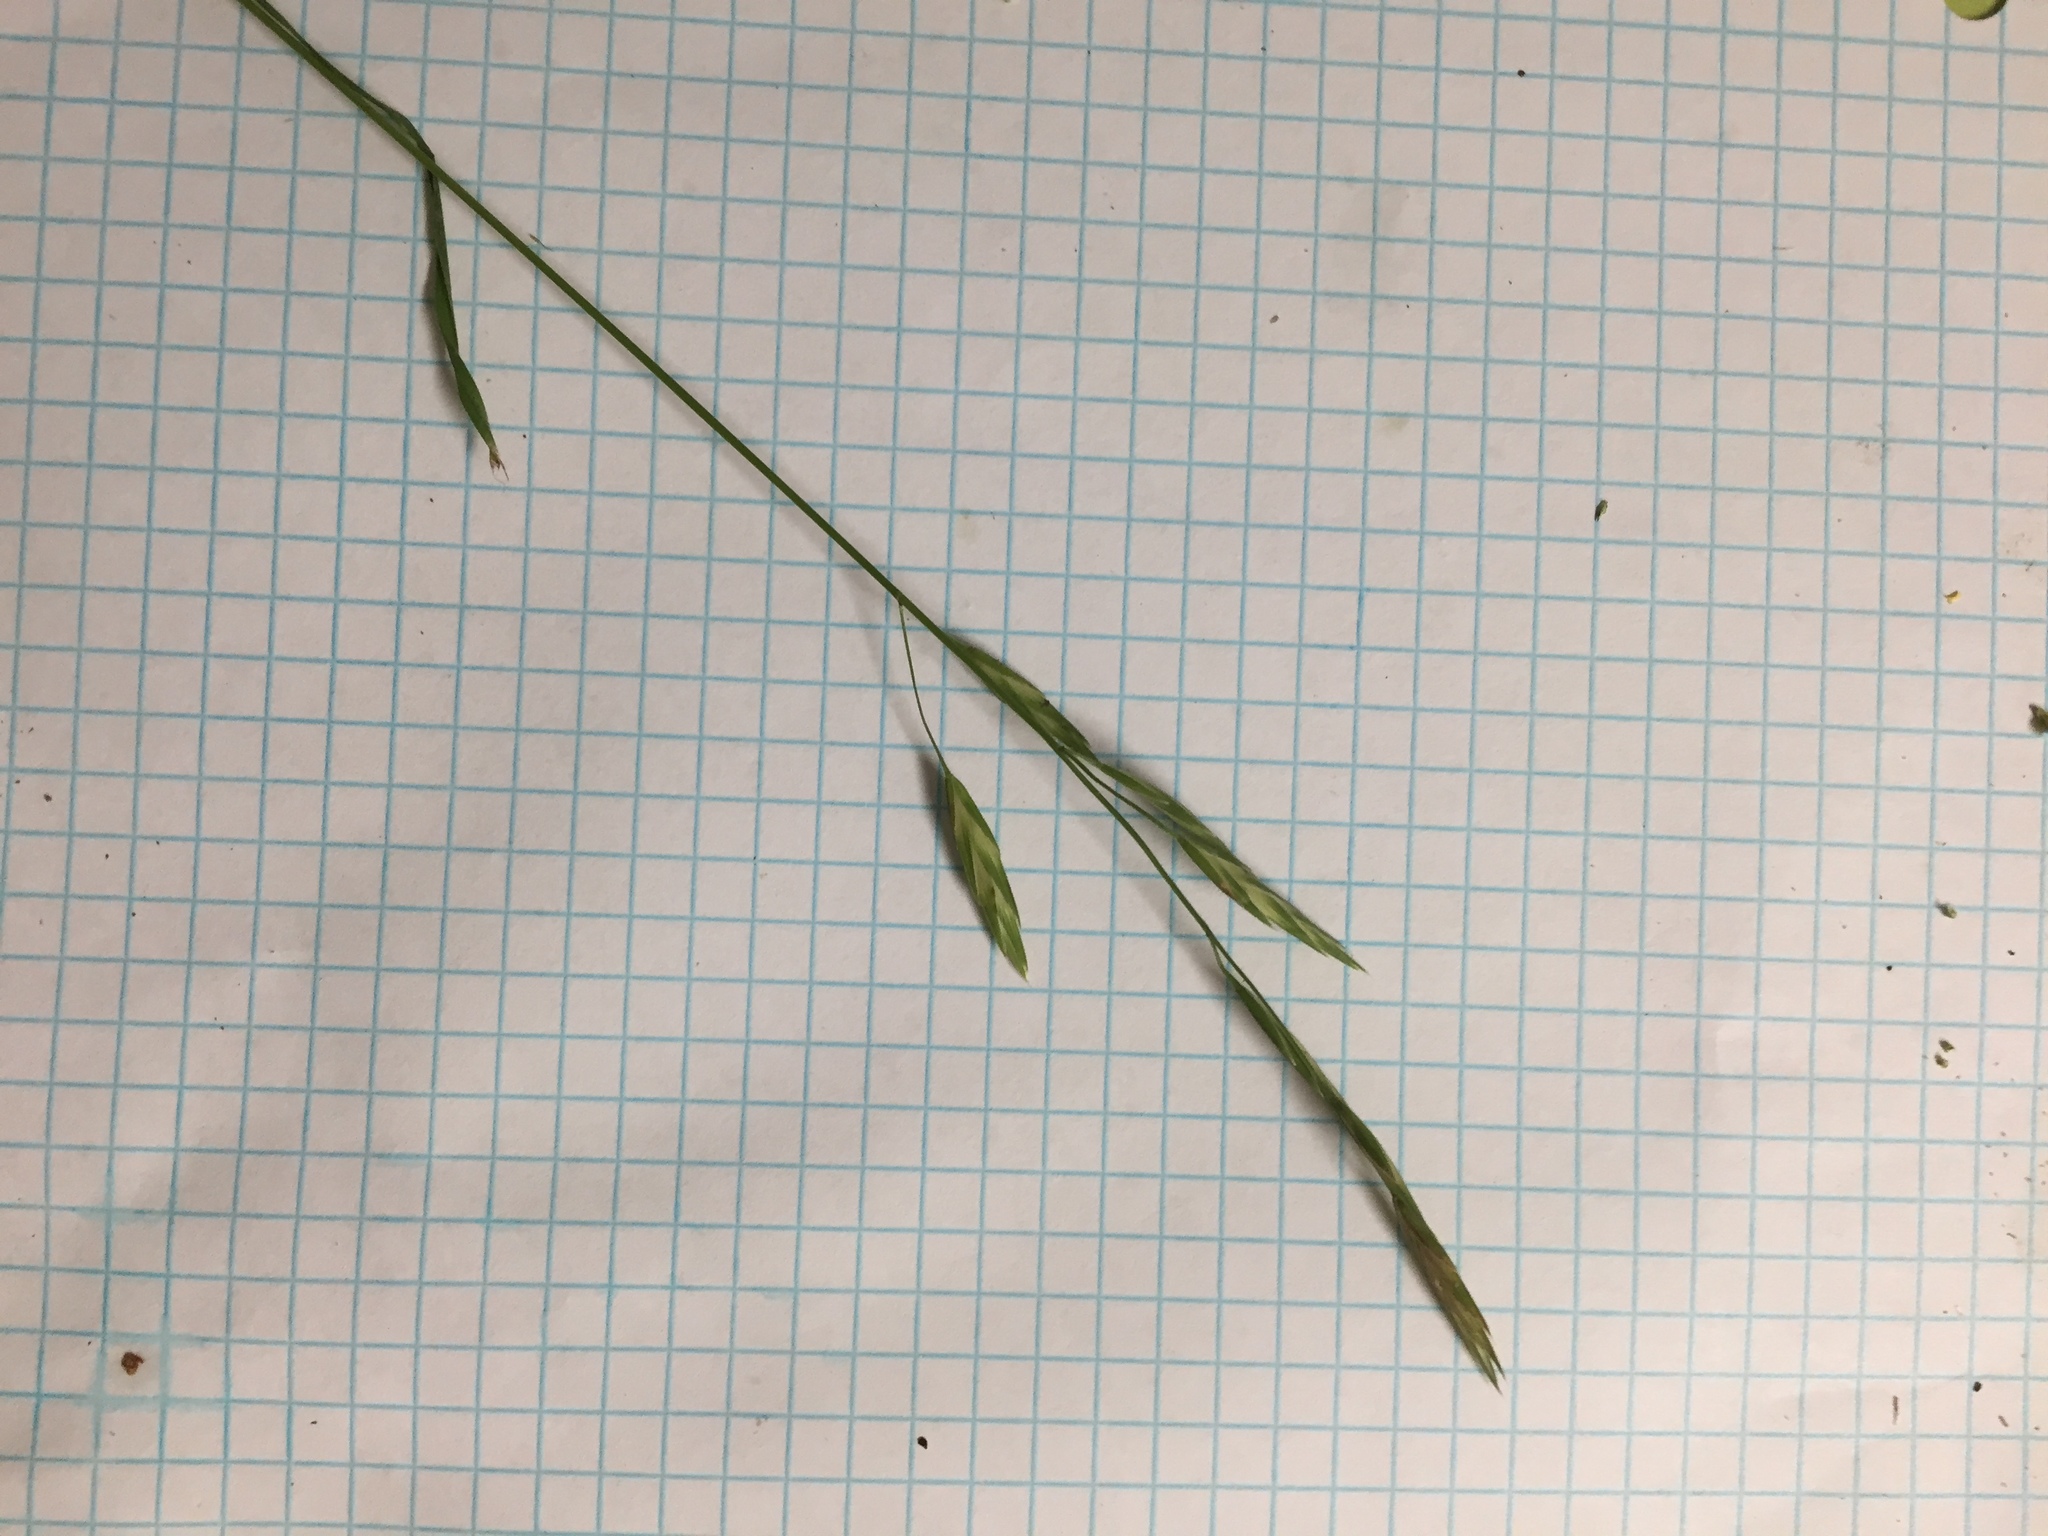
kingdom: Plantae
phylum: Tracheophyta
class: Liliopsida
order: Poales
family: Poaceae
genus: Bromus
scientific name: Bromus catharticus
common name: Rescuegrass
